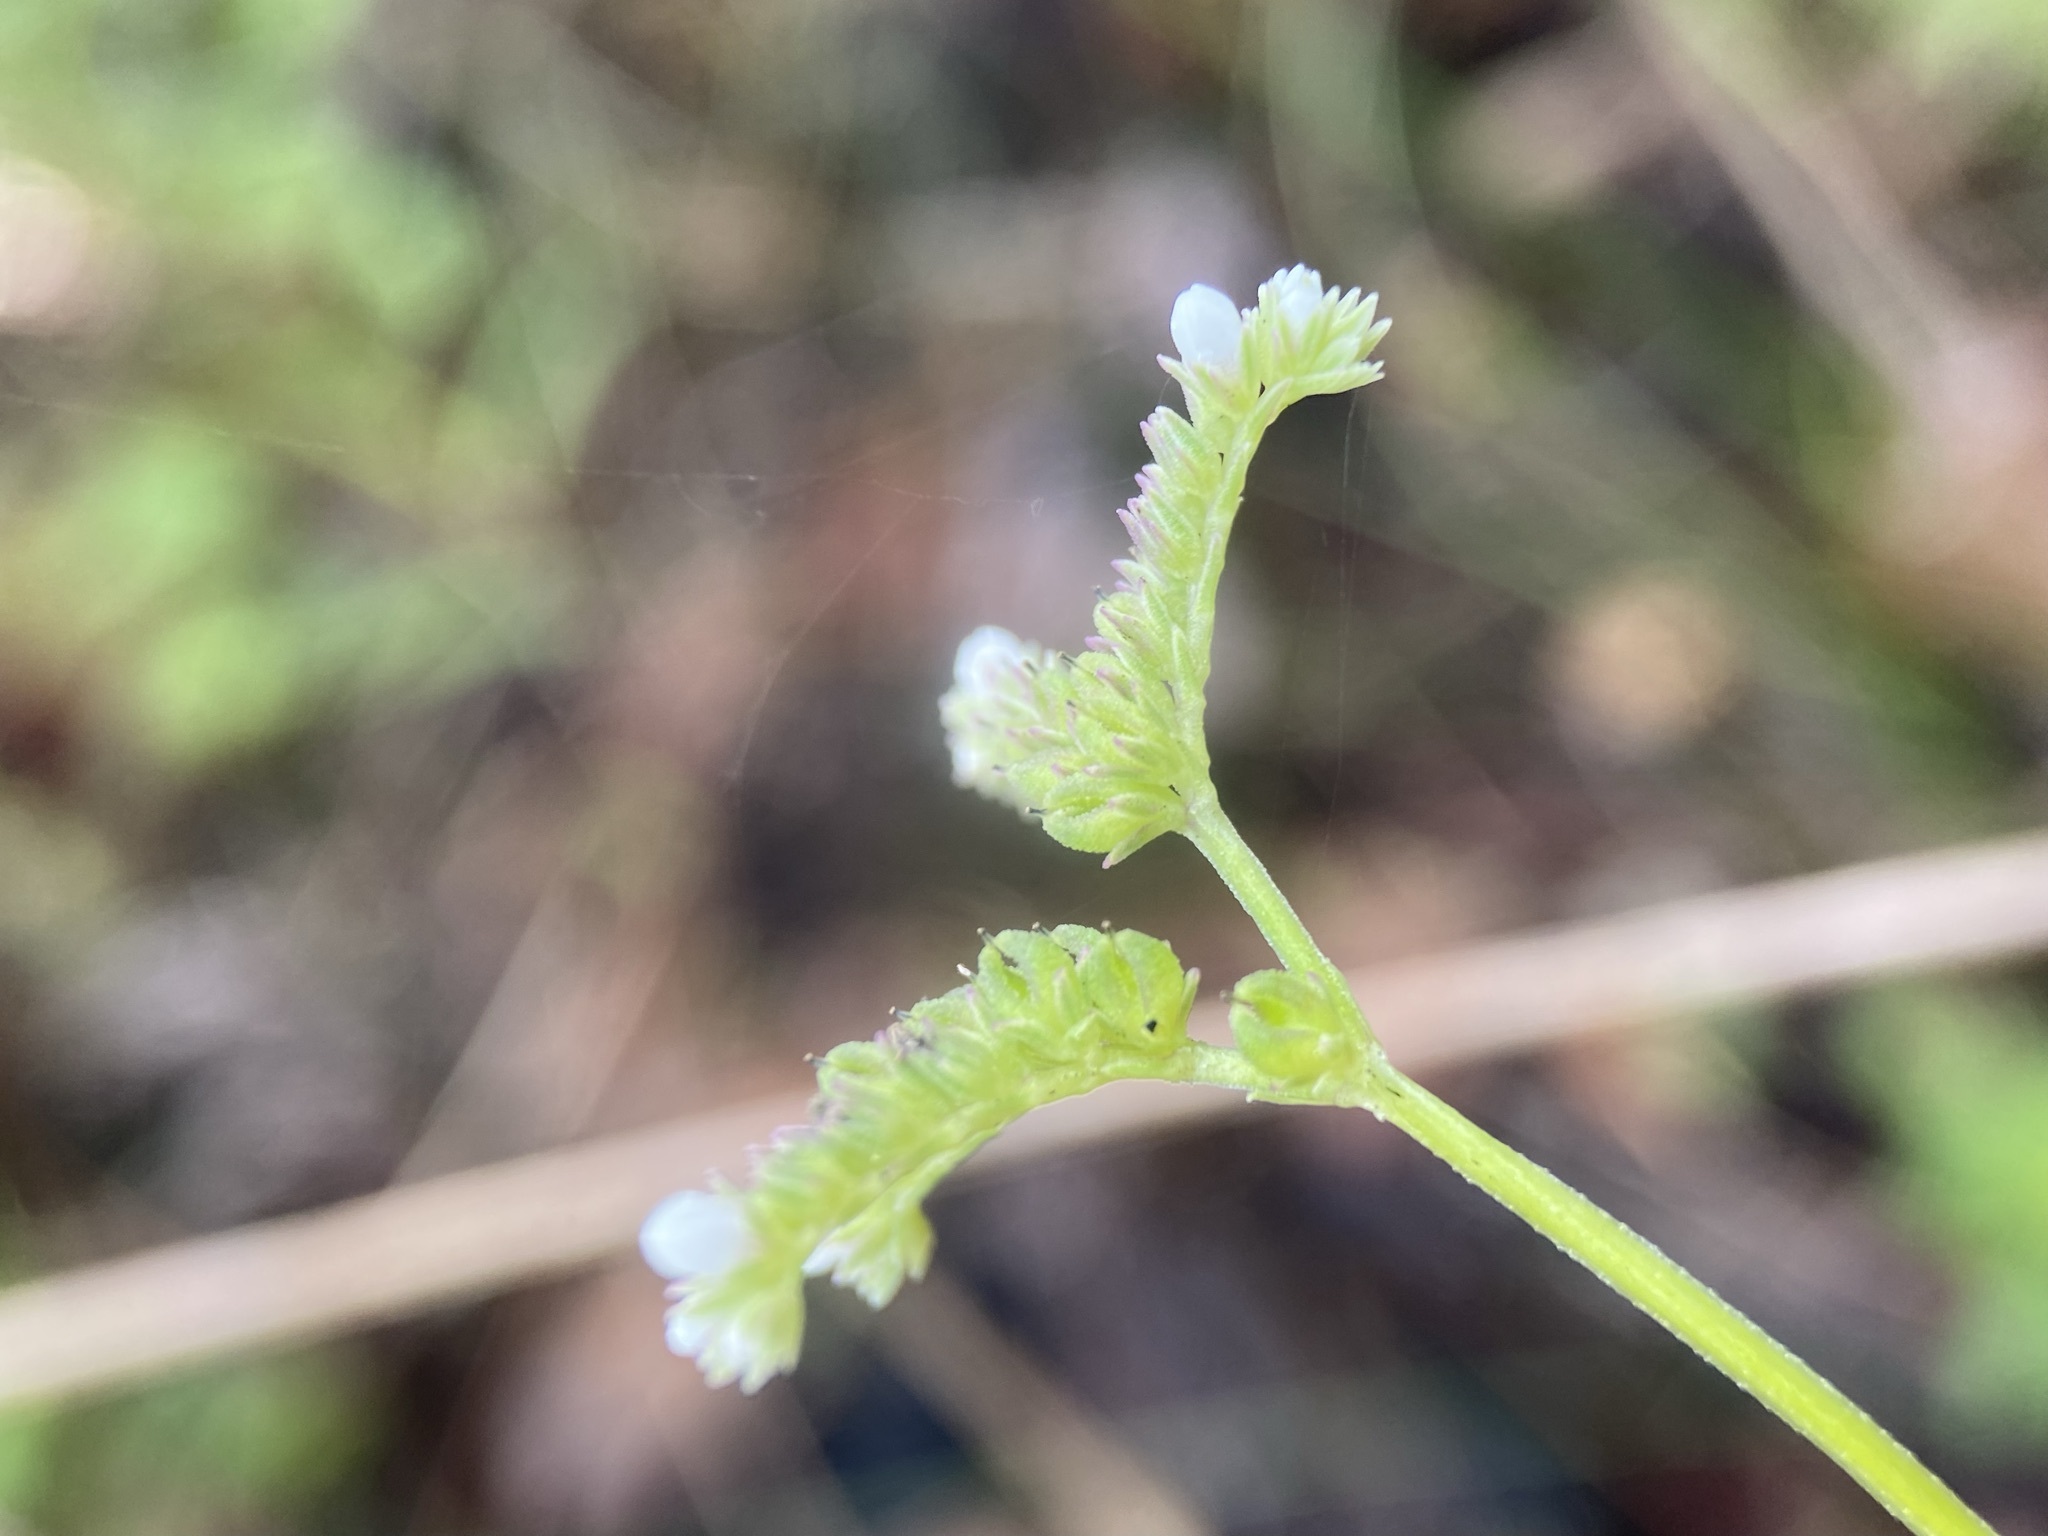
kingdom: Plantae
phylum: Tracheophyta
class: Magnoliopsida
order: Gentianales
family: Loganiaceae
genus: Mitreola
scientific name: Mitreola sessilifolia
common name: Swamp hornpod
